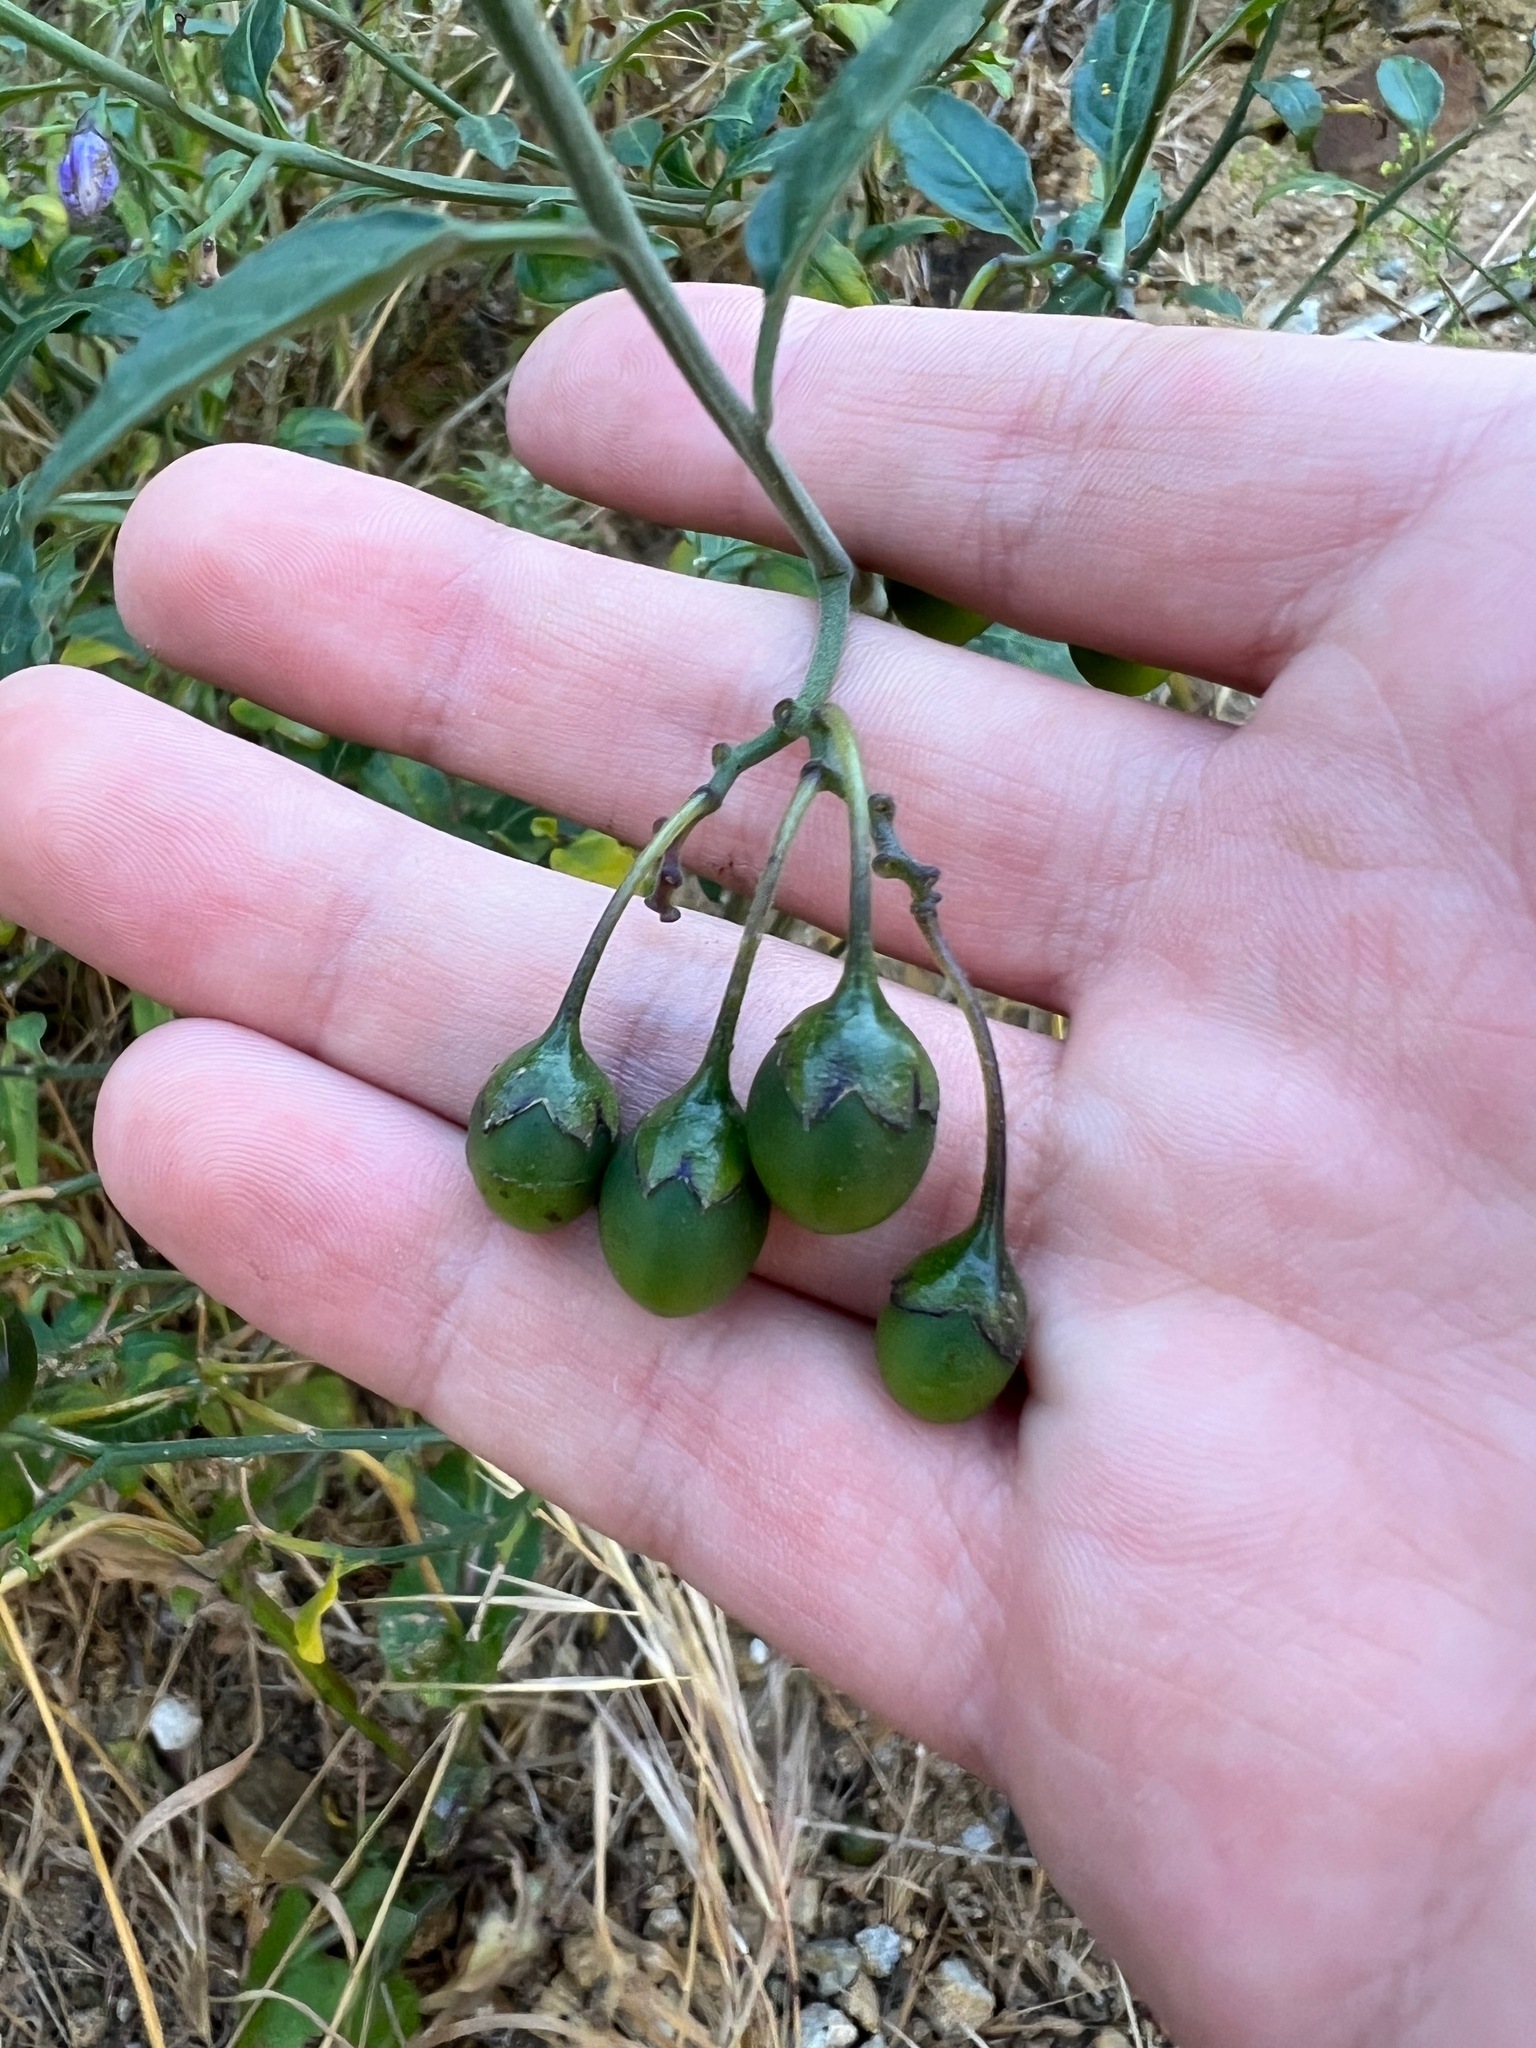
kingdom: Plantae
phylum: Tracheophyta
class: Magnoliopsida
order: Solanales
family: Solanaceae
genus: Solanum
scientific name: Solanum umbelliferum
